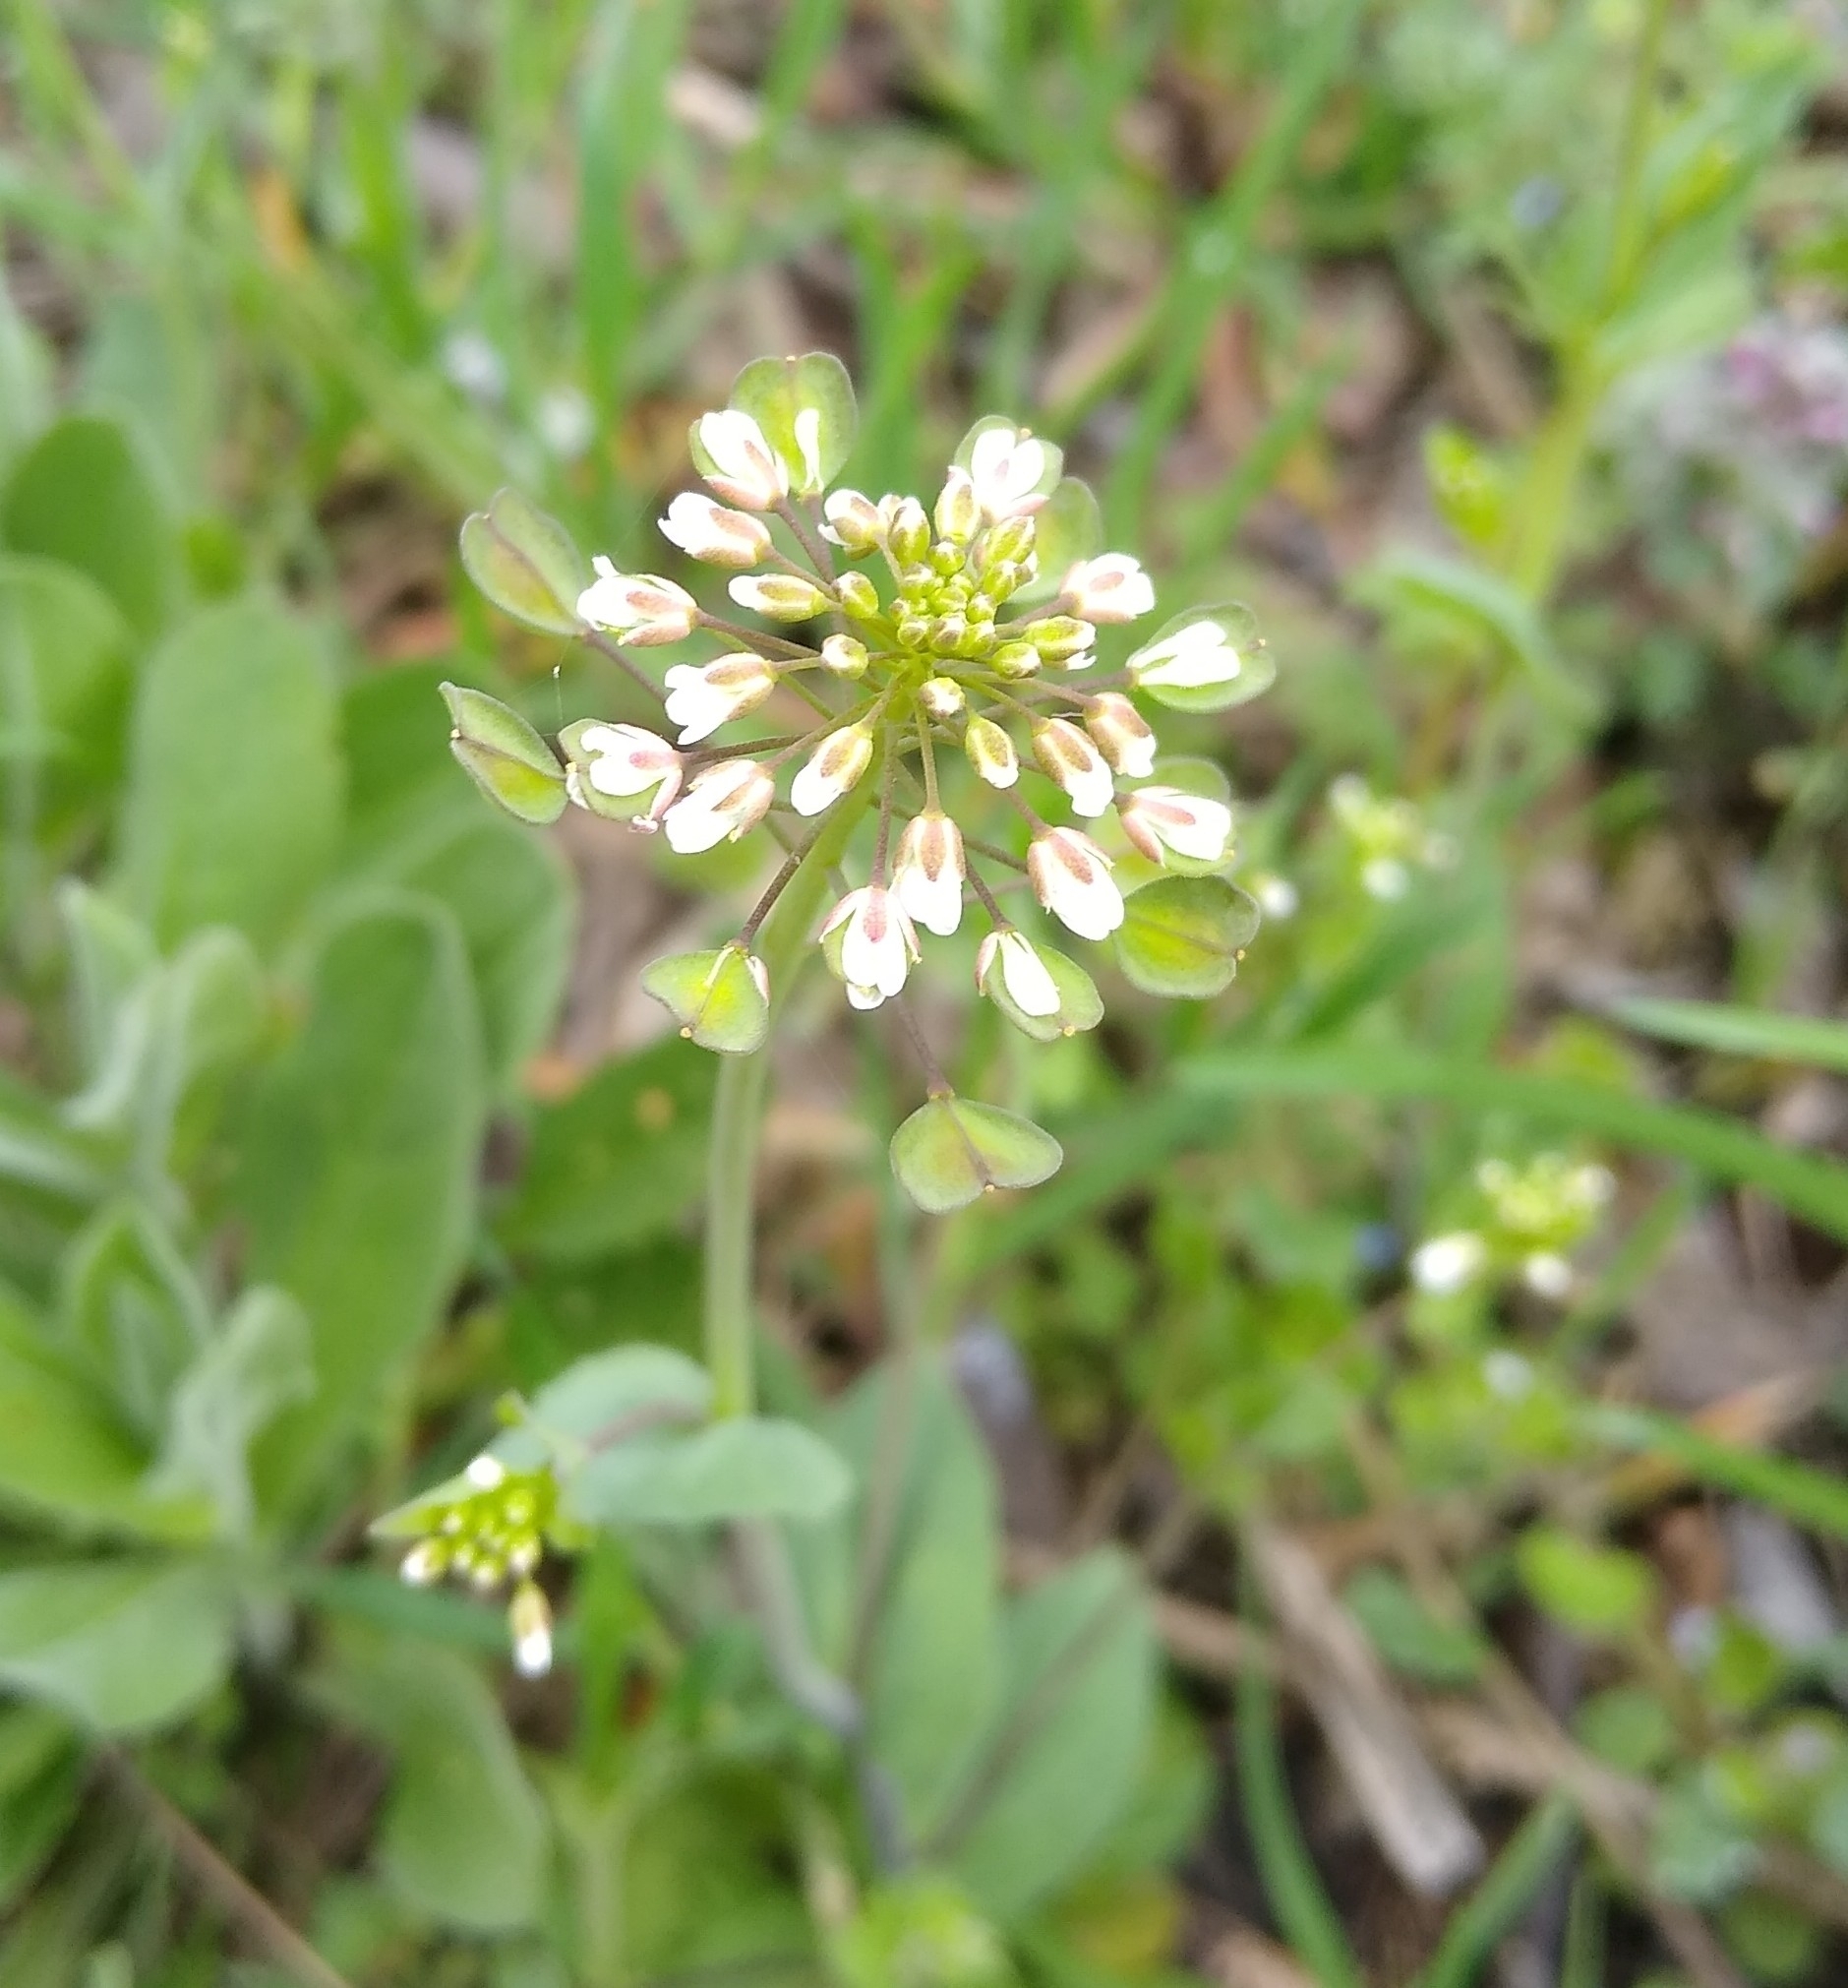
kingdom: Plantae
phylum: Tracheophyta
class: Magnoliopsida
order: Brassicales
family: Brassicaceae
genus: Noccaea
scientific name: Noccaea perfoliata
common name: Perfoliate pennycress
